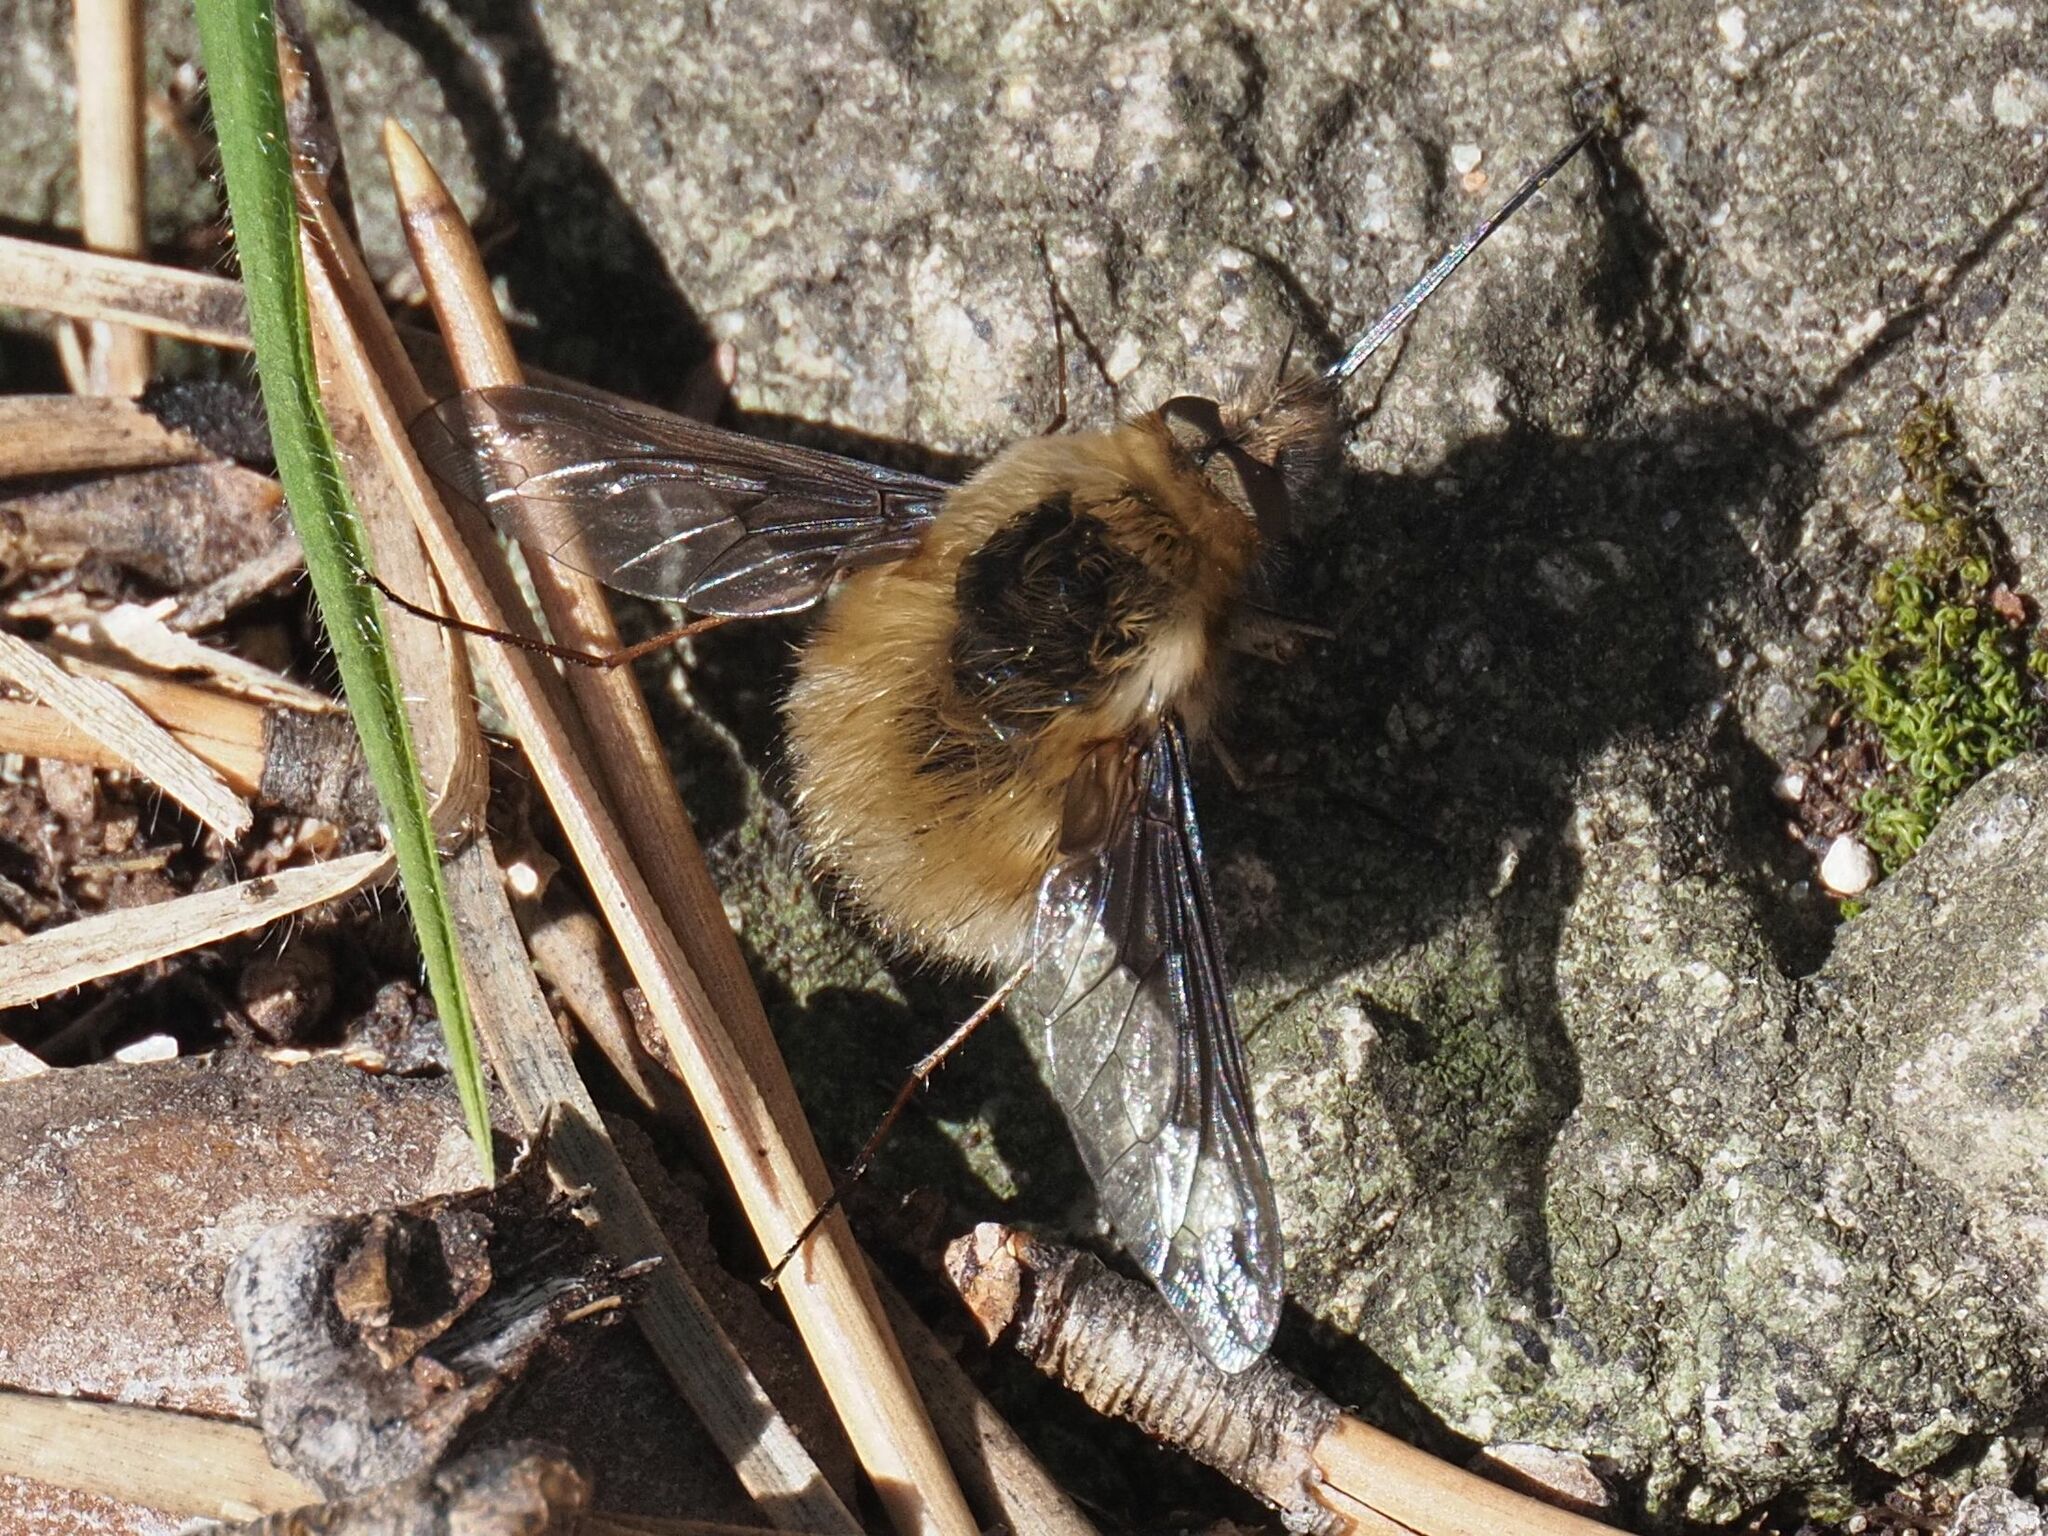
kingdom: Animalia
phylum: Arthropoda
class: Insecta
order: Diptera
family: Bombyliidae
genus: Bombylius
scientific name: Bombylius major
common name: Bee fly
